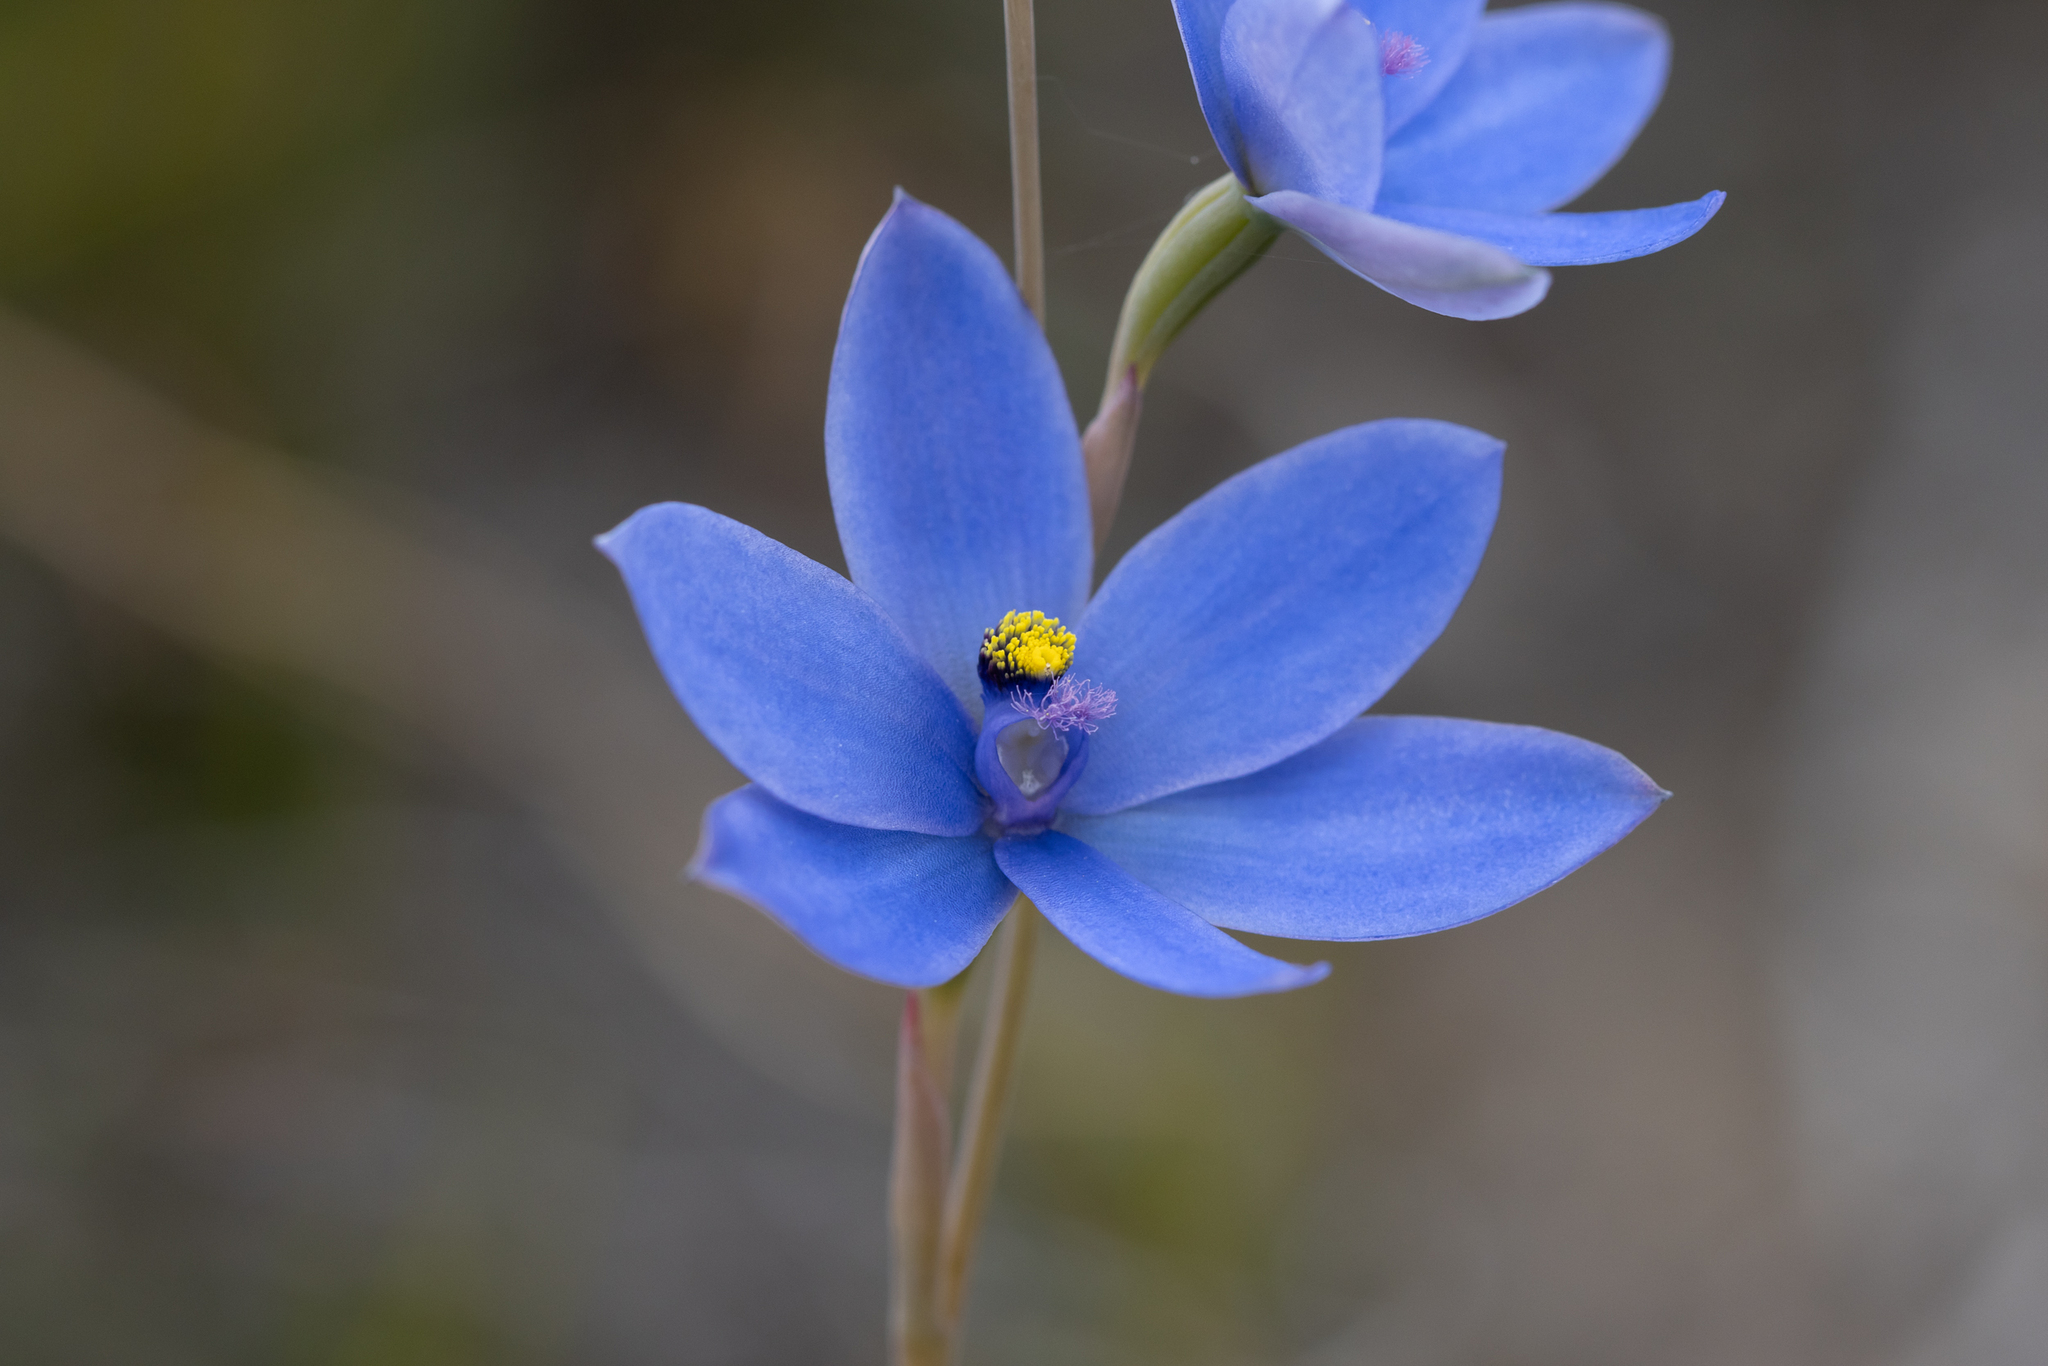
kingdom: Plantae
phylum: Tracheophyta
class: Liliopsida
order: Asparagales
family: Orchidaceae
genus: Thelymitra
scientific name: Thelymitra crinita
